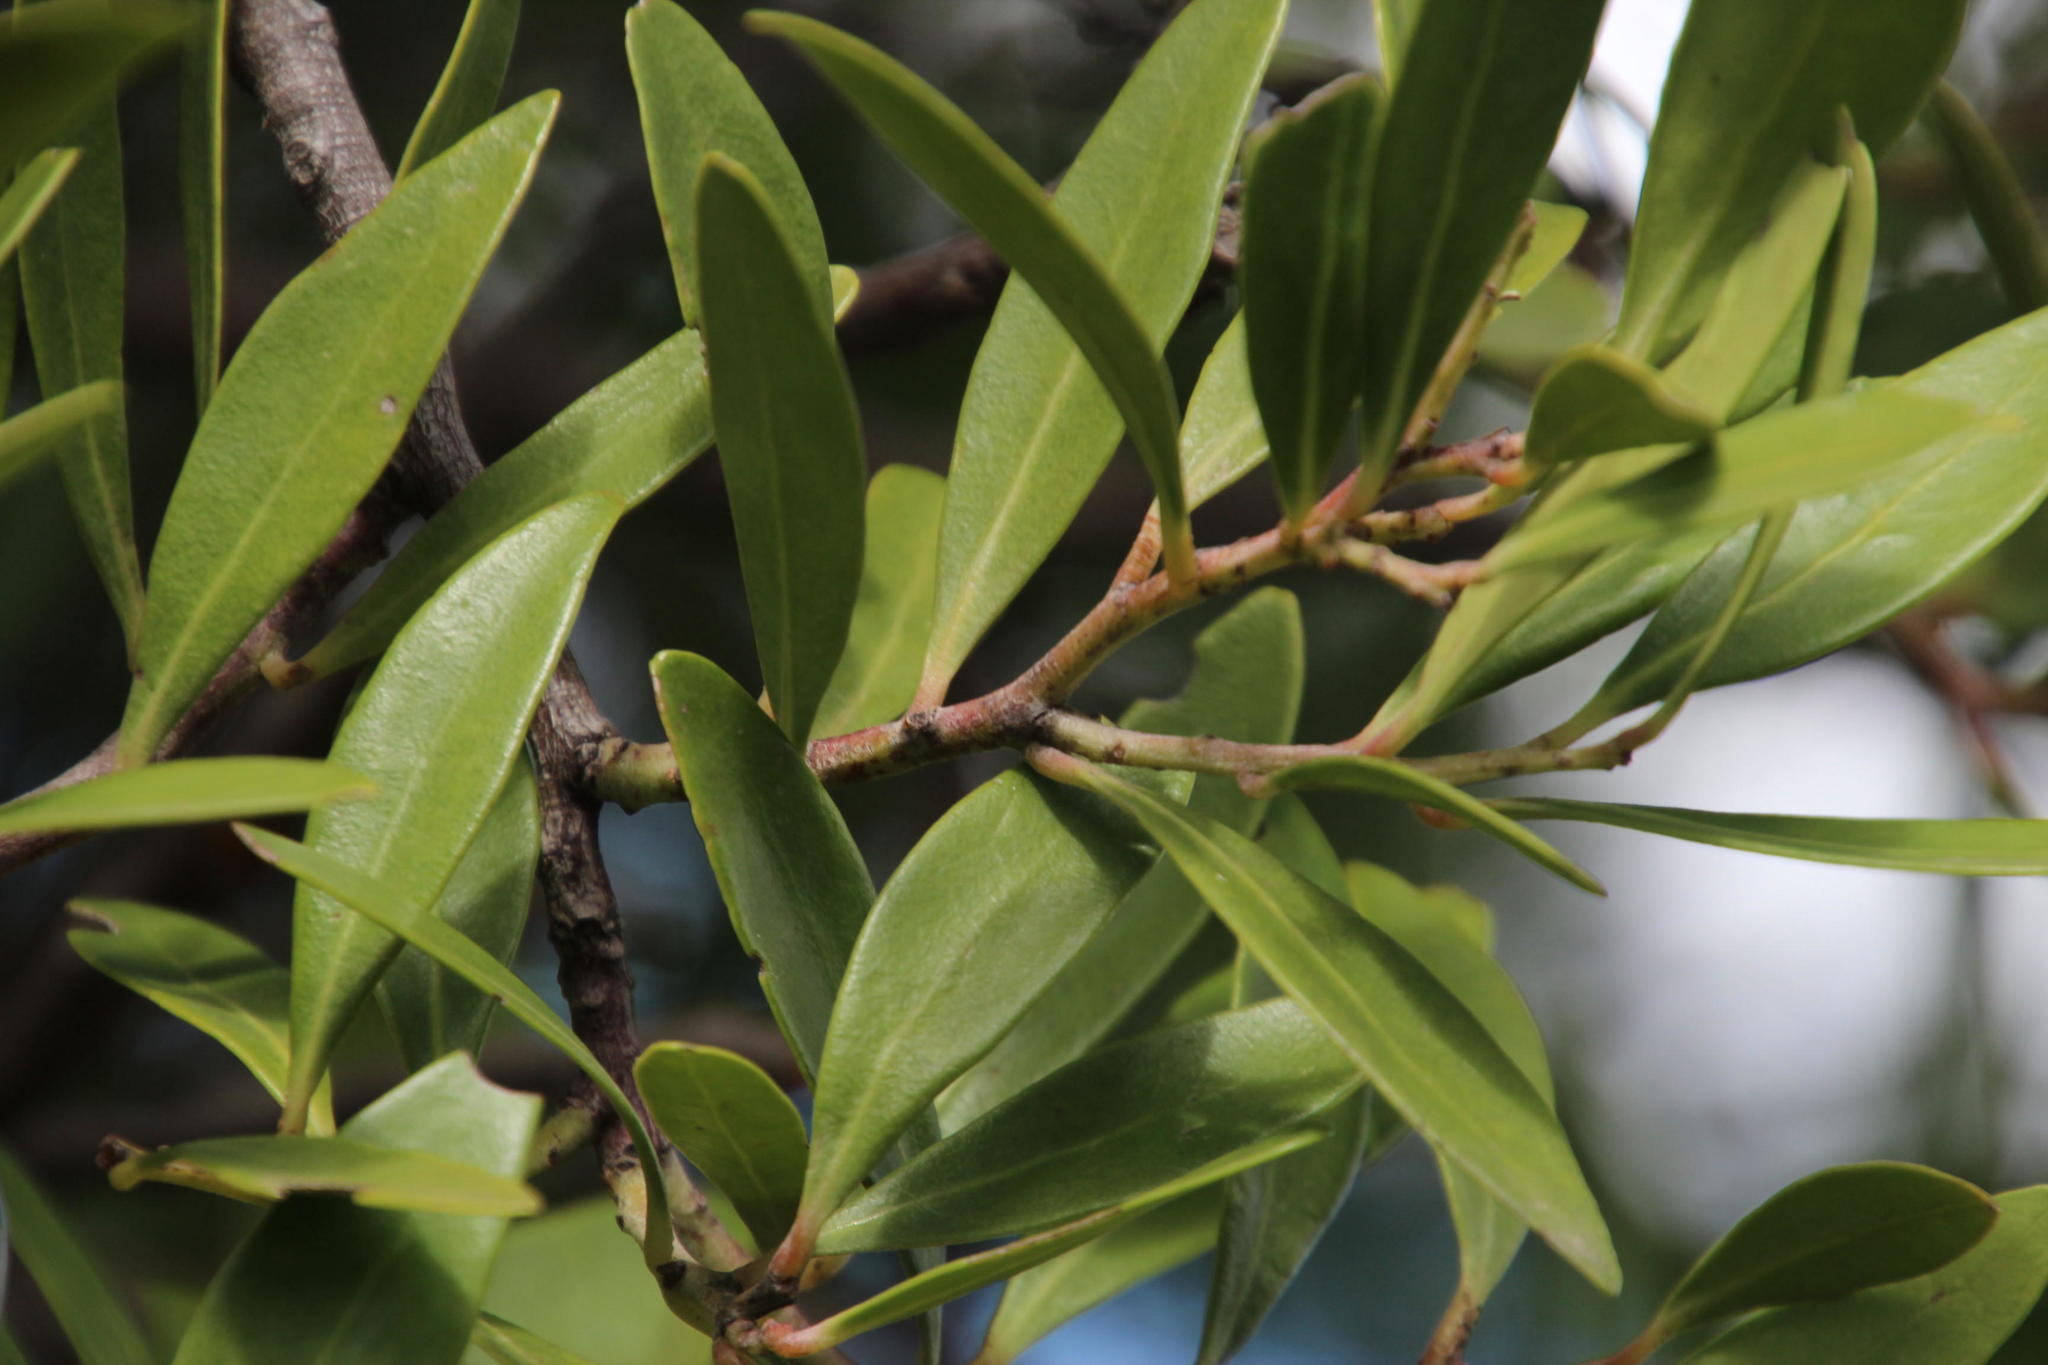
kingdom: Plantae
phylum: Tracheophyta
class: Magnoliopsida
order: Celastrales
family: Celastraceae
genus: Gymnosporia
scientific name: Gymnosporia laurina
